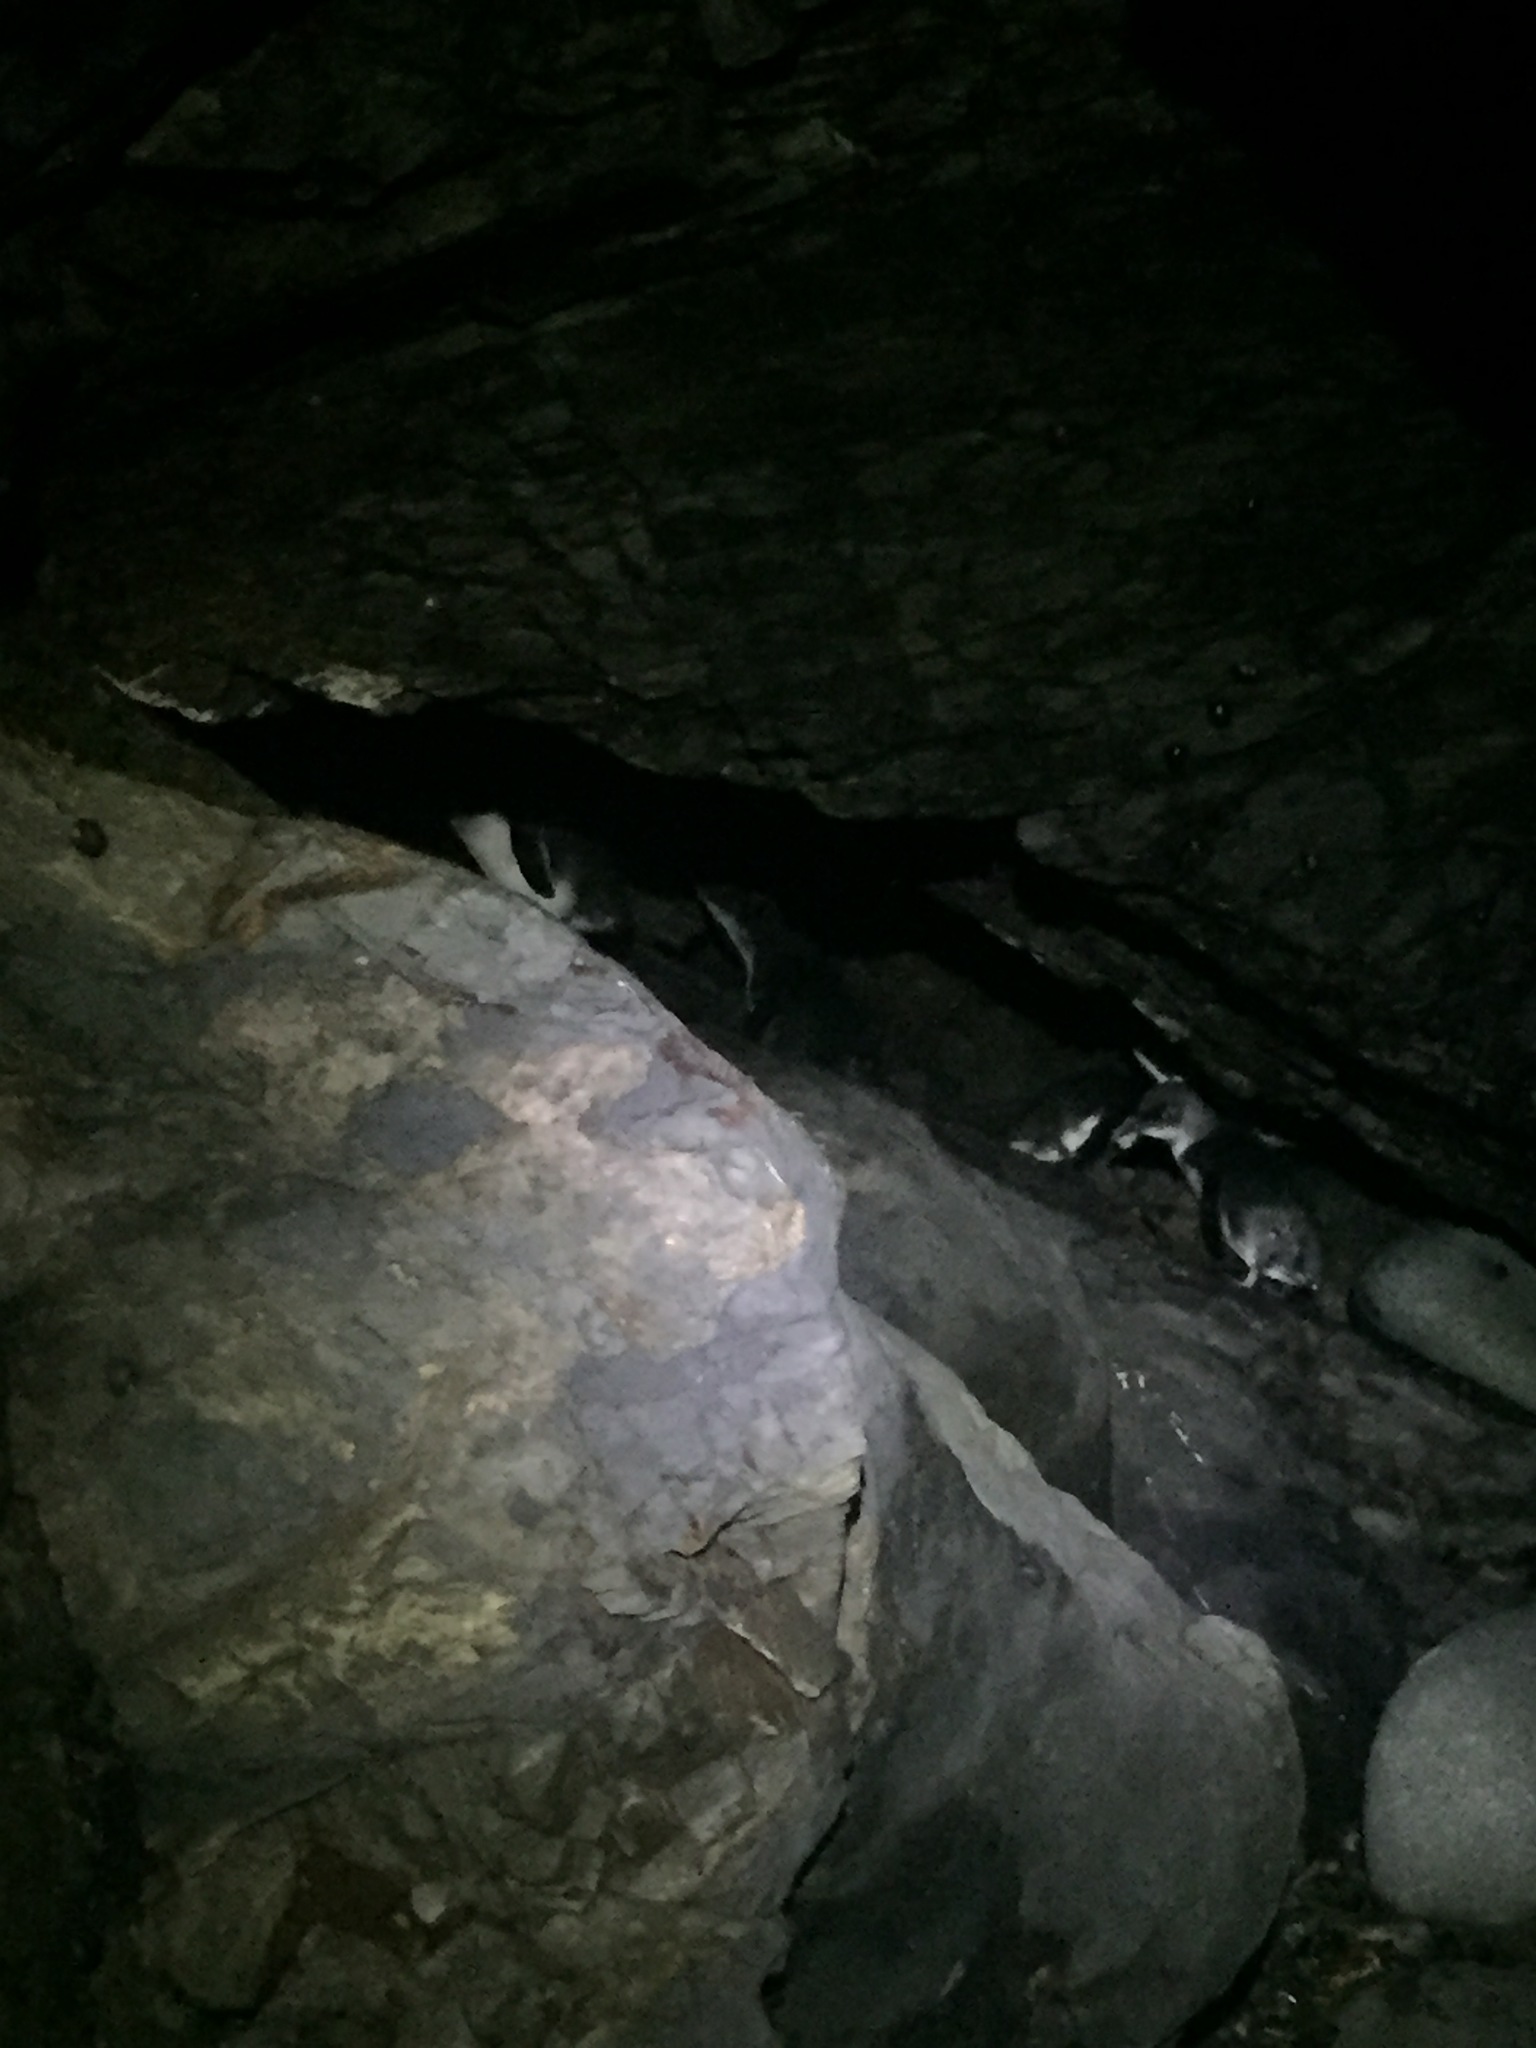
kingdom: Animalia
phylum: Chordata
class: Aves
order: Sphenisciformes
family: Spheniscidae
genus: Eudyptula
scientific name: Eudyptula minor
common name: Little penguin
